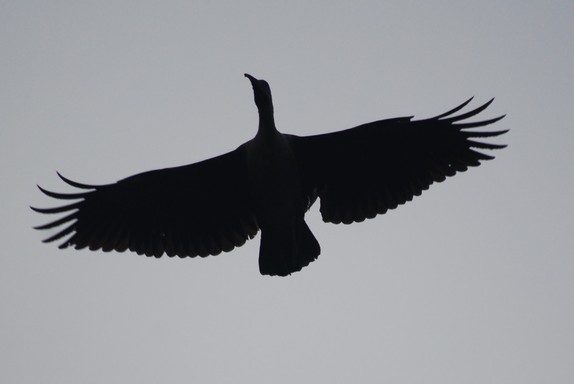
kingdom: Animalia
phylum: Chordata
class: Aves
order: Pelecaniformes
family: Threskiornithidae
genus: Bostrychia
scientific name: Bostrychia hagedash
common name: Hadada ibis
